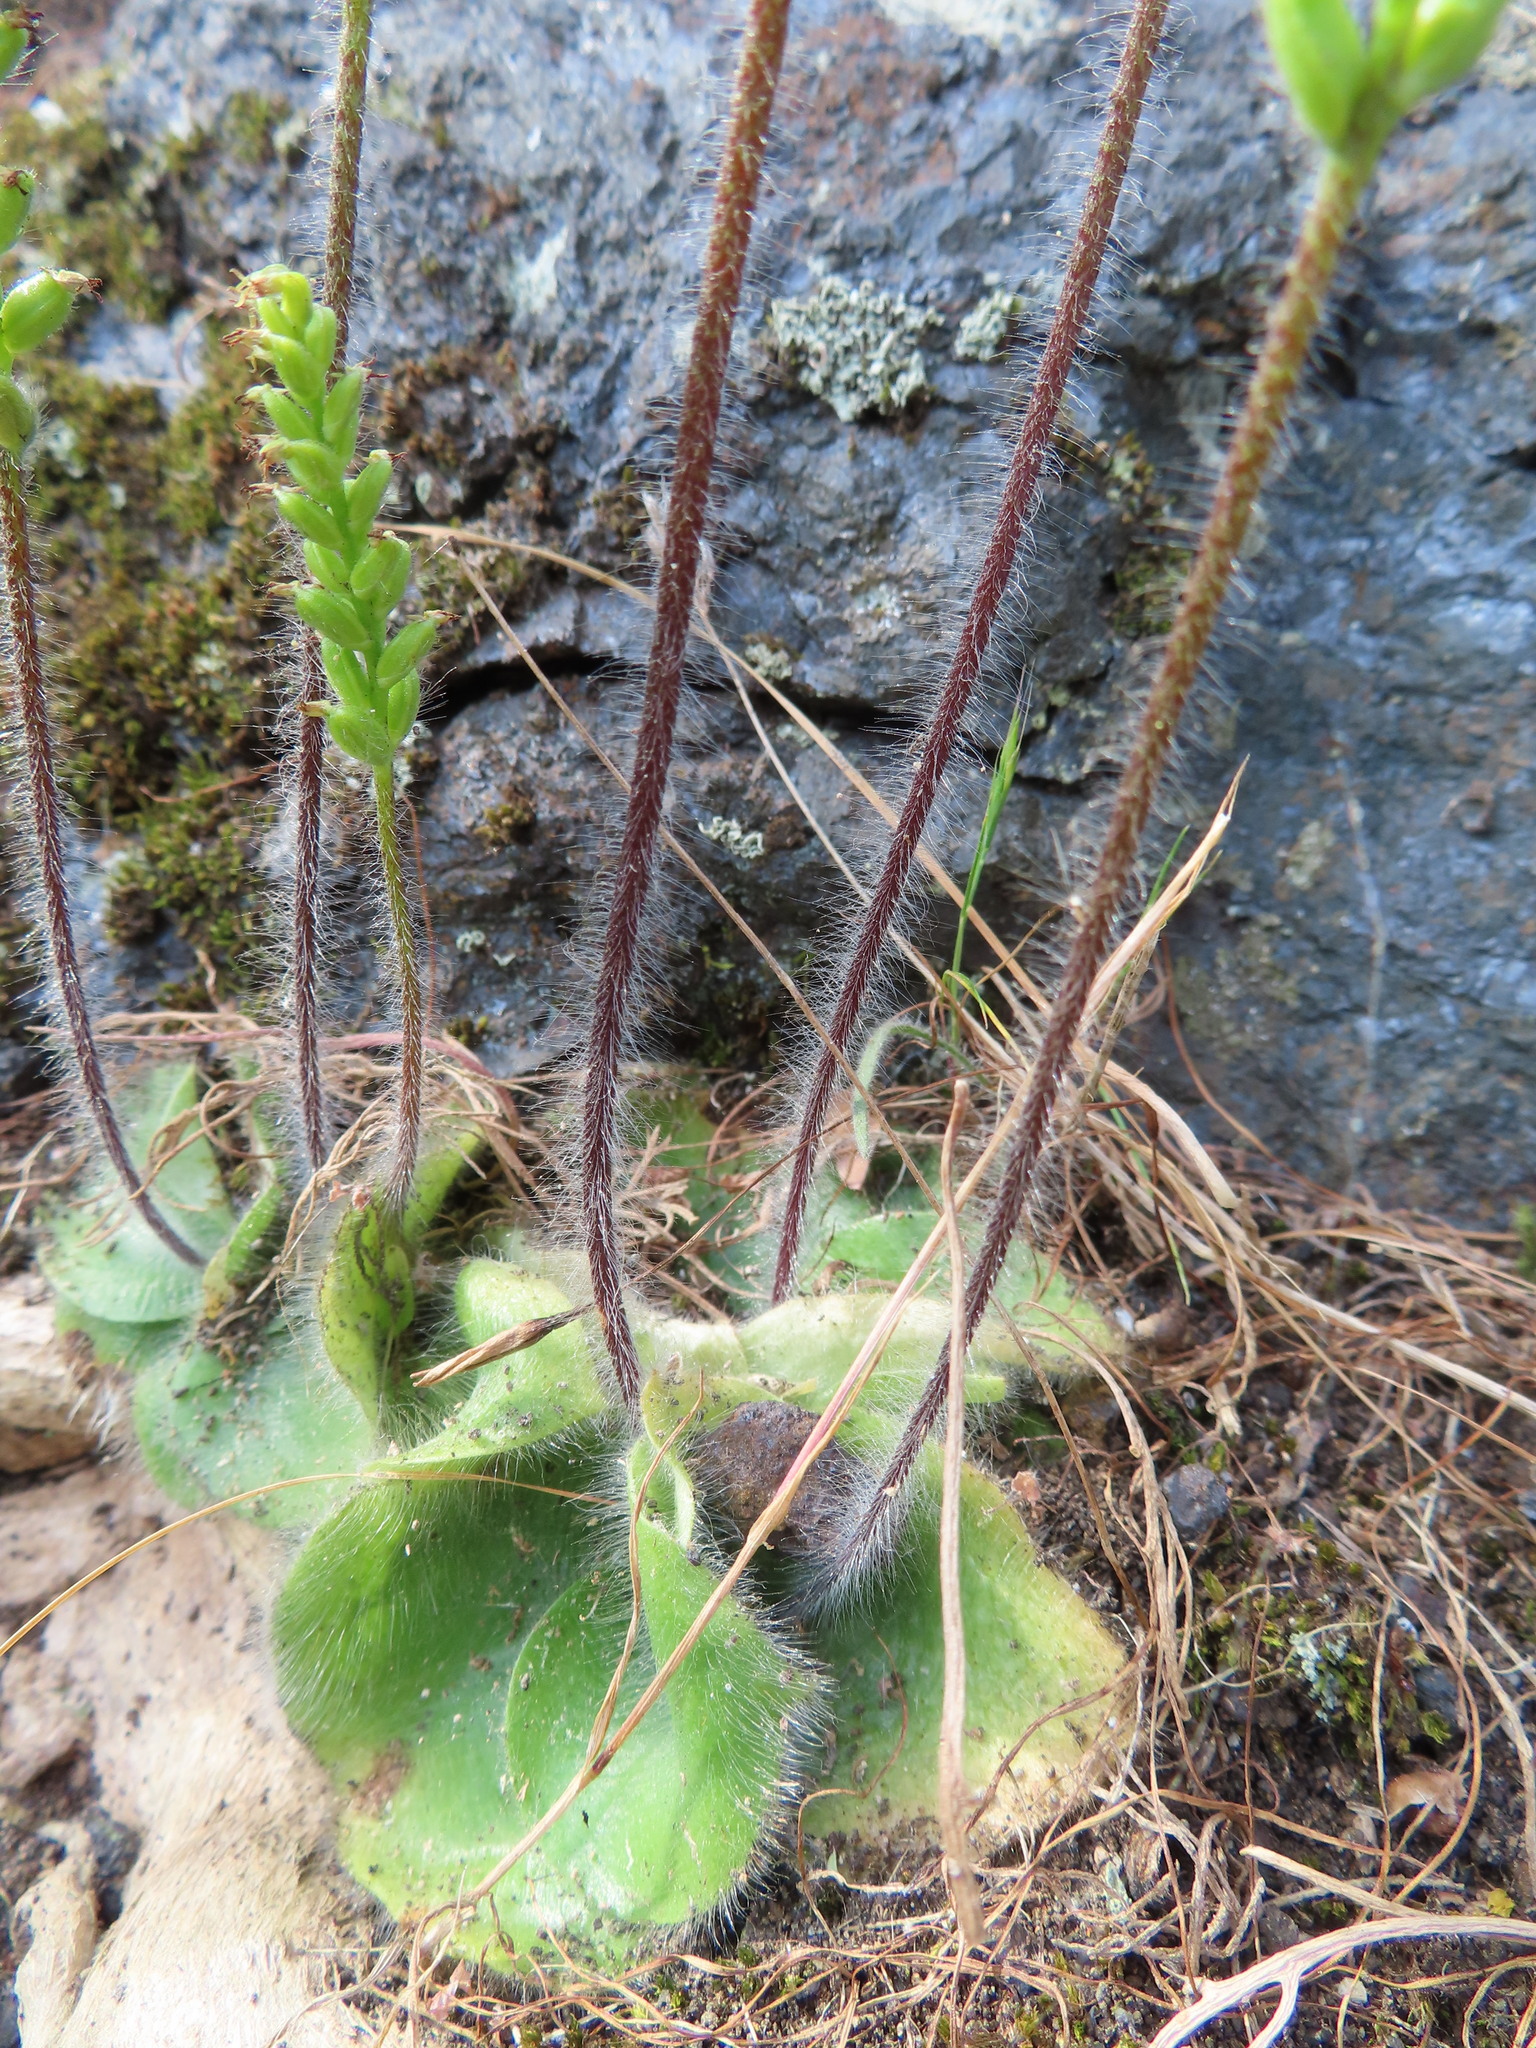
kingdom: Plantae
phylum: Tracheophyta
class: Liliopsida
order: Asparagales
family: Orchidaceae
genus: Holothrix
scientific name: Holothrix villosa
